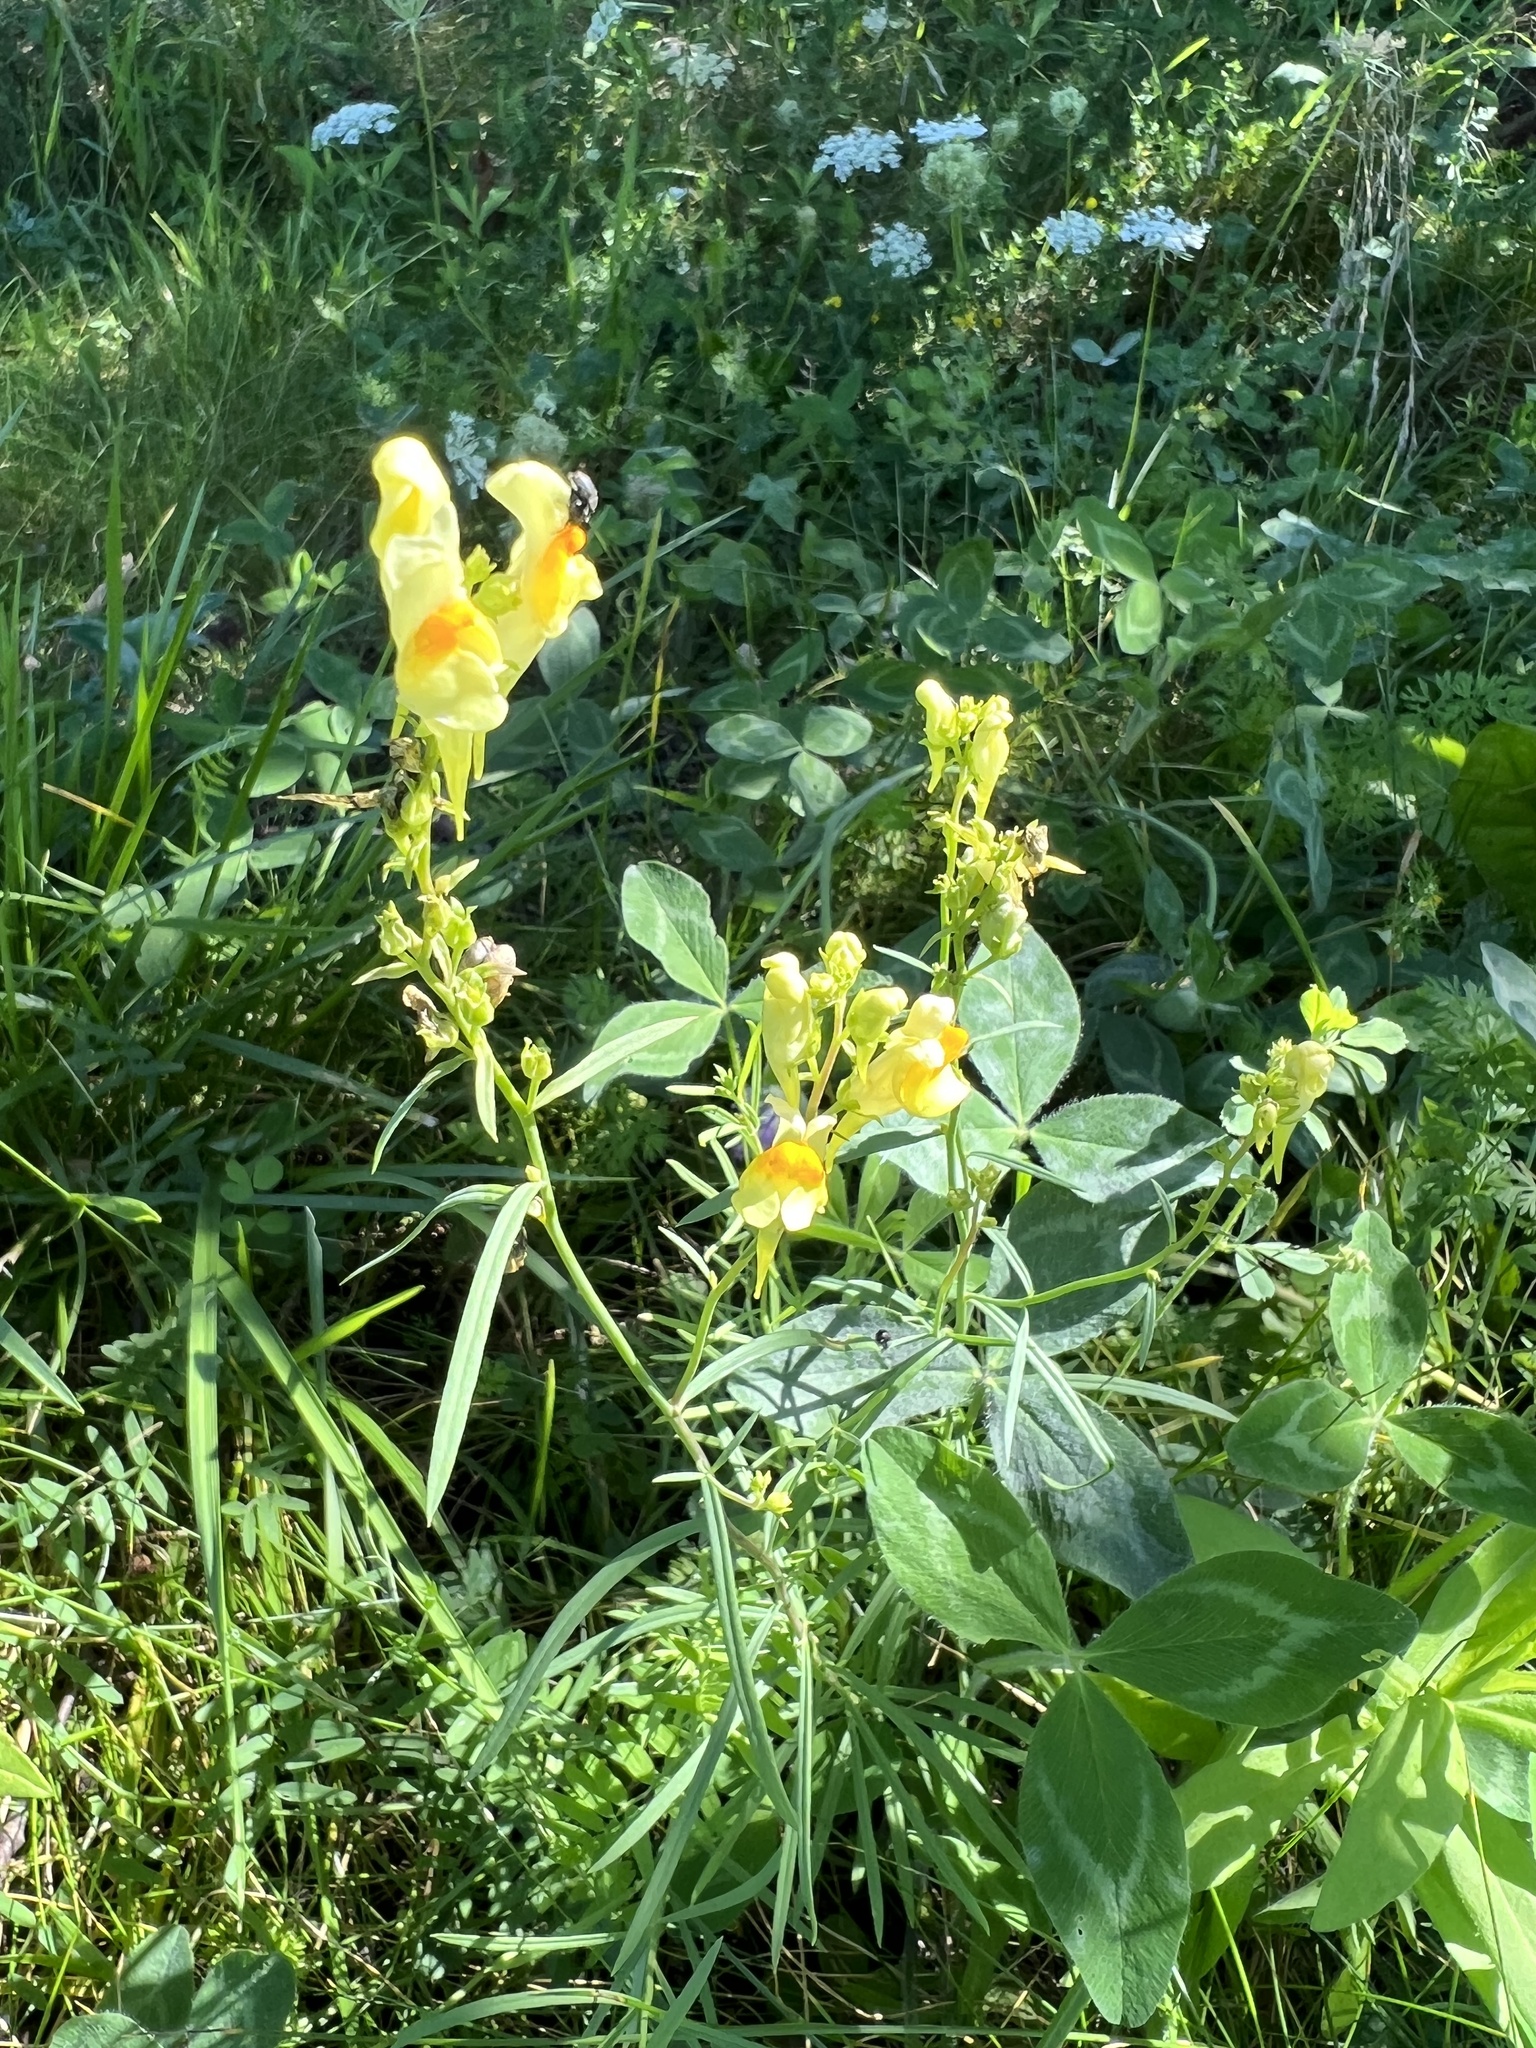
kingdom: Plantae
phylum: Tracheophyta
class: Magnoliopsida
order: Lamiales
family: Plantaginaceae
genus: Linaria
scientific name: Linaria vulgaris
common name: Butter and eggs
